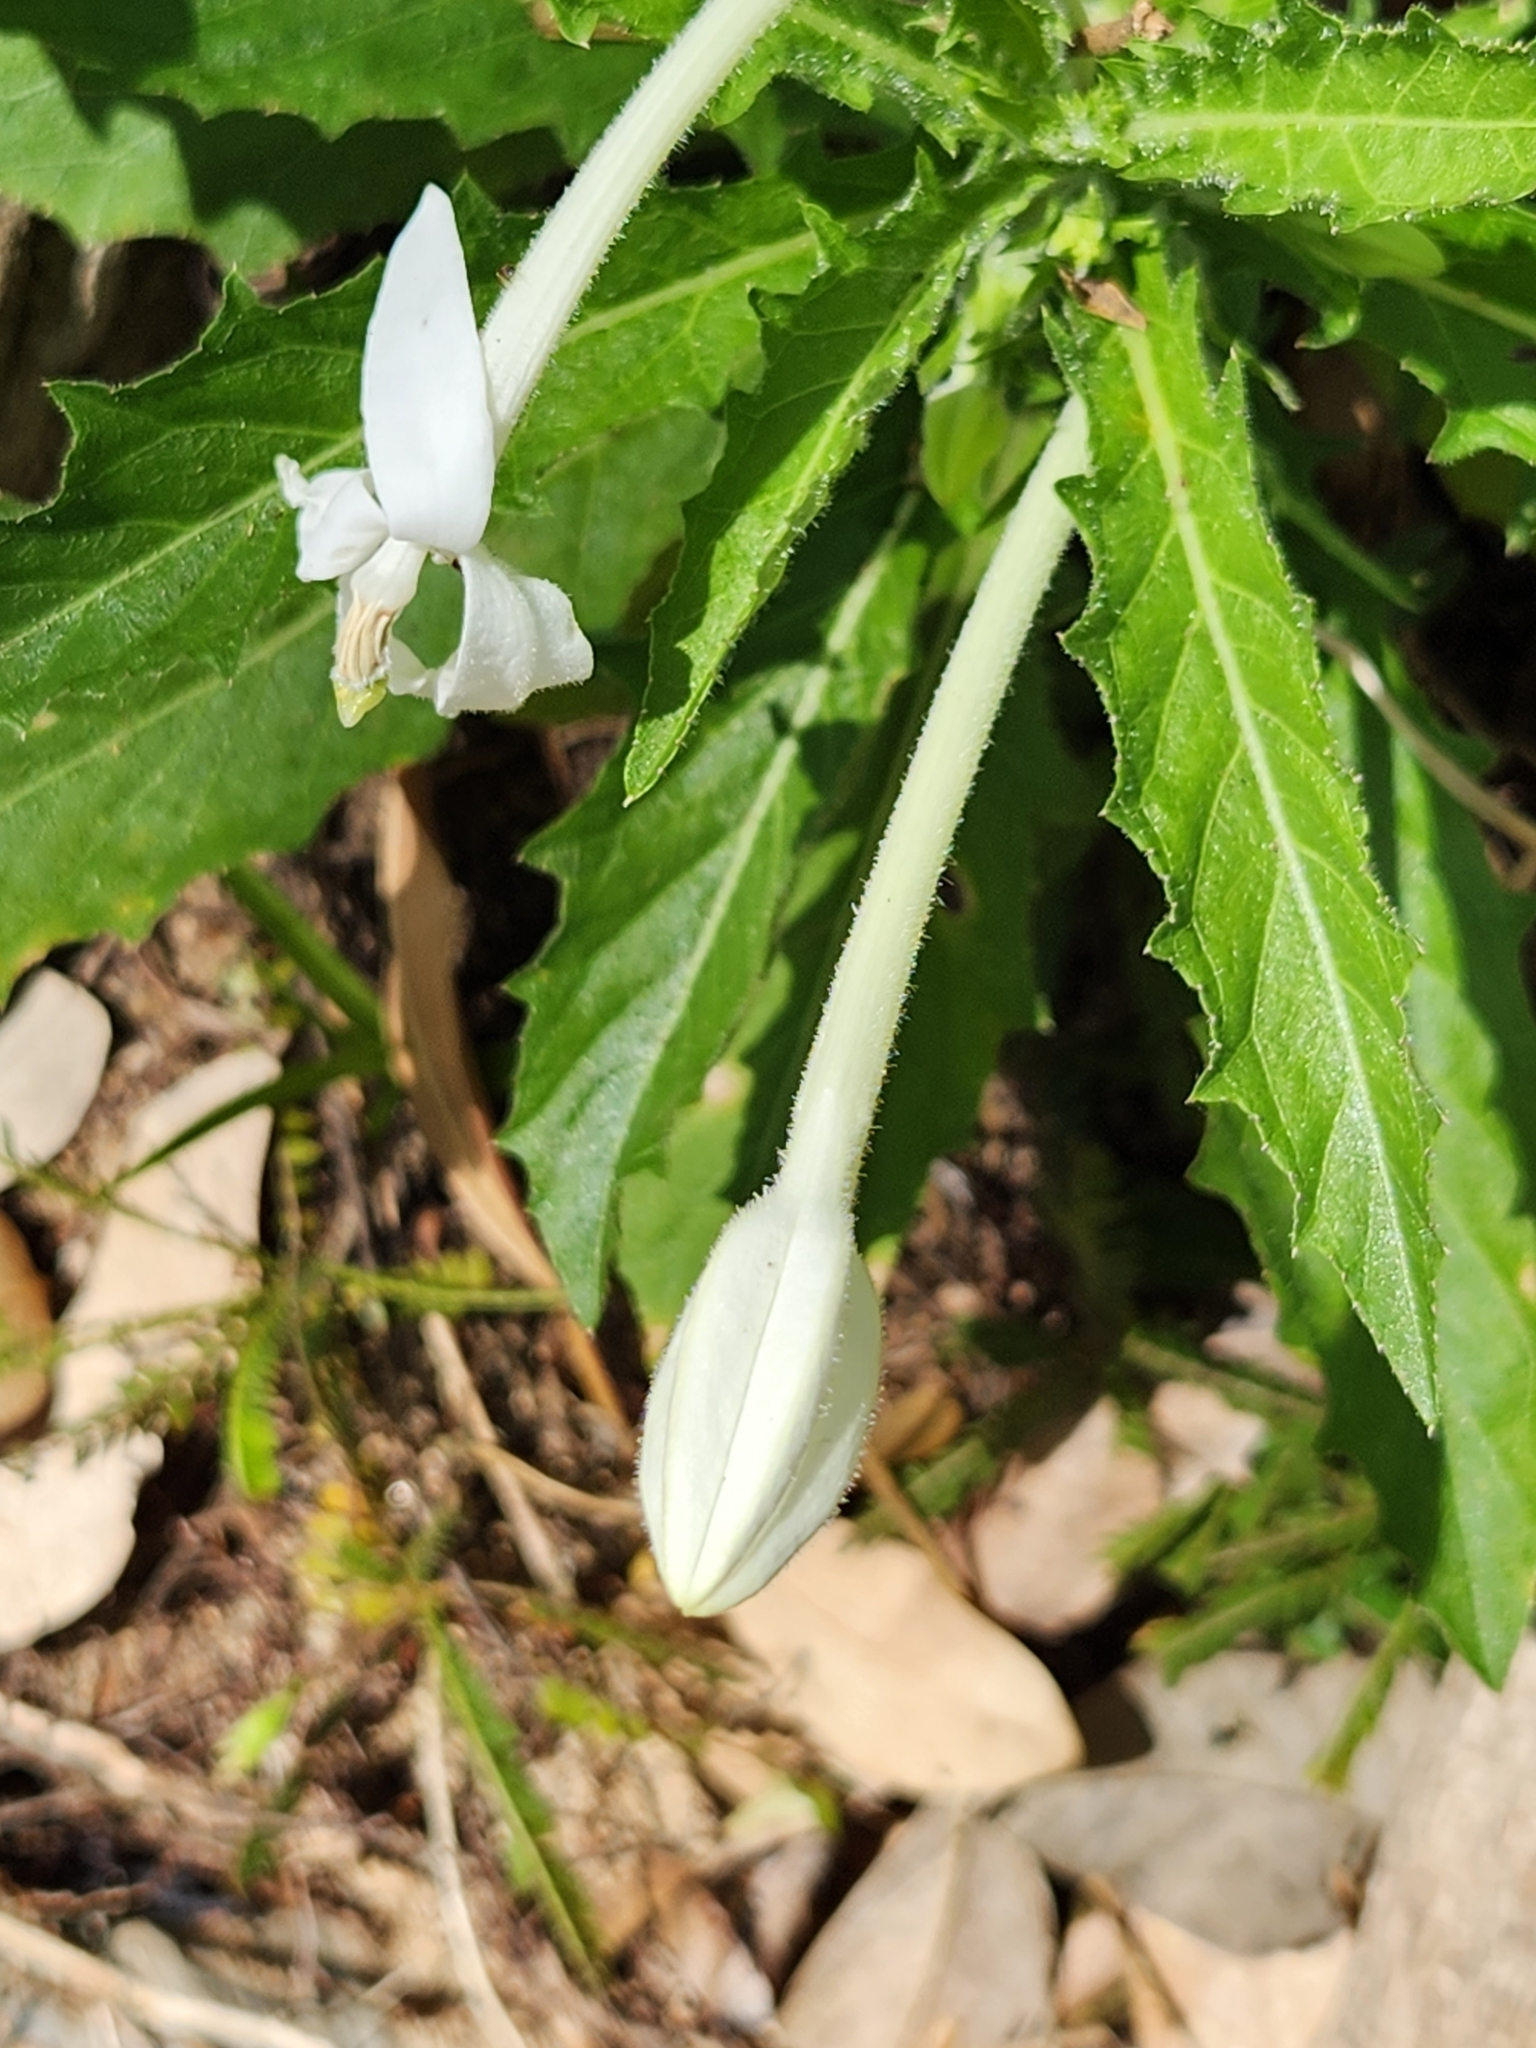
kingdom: Plantae
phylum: Tracheophyta
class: Magnoliopsida
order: Asterales
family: Campanulaceae
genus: Hippobroma
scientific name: Hippobroma longiflora
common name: Madamfate
